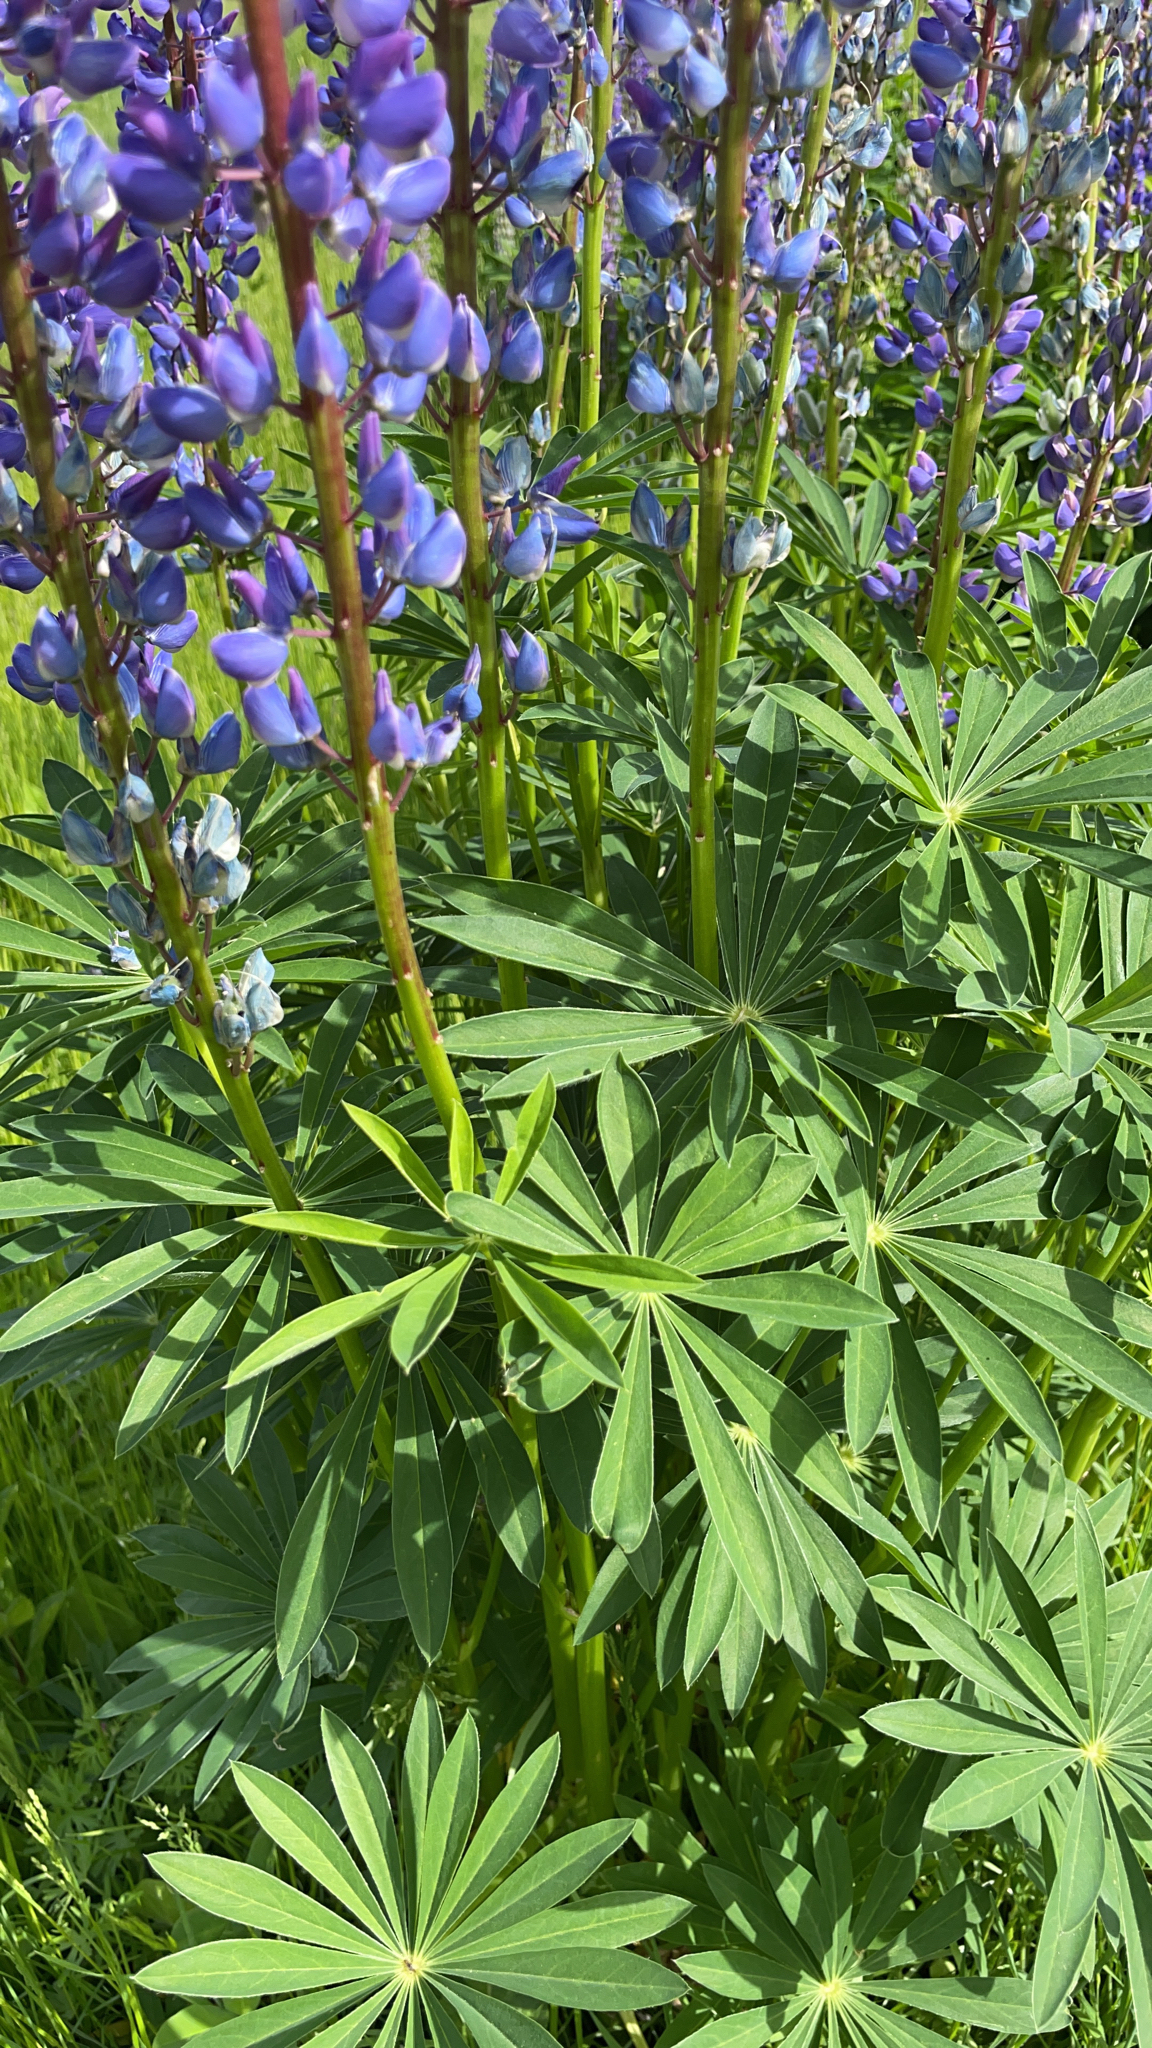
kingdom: Plantae
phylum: Tracheophyta
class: Magnoliopsida
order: Fabales
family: Fabaceae
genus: Lupinus
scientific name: Lupinus polyphyllus
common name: Garden lupin
